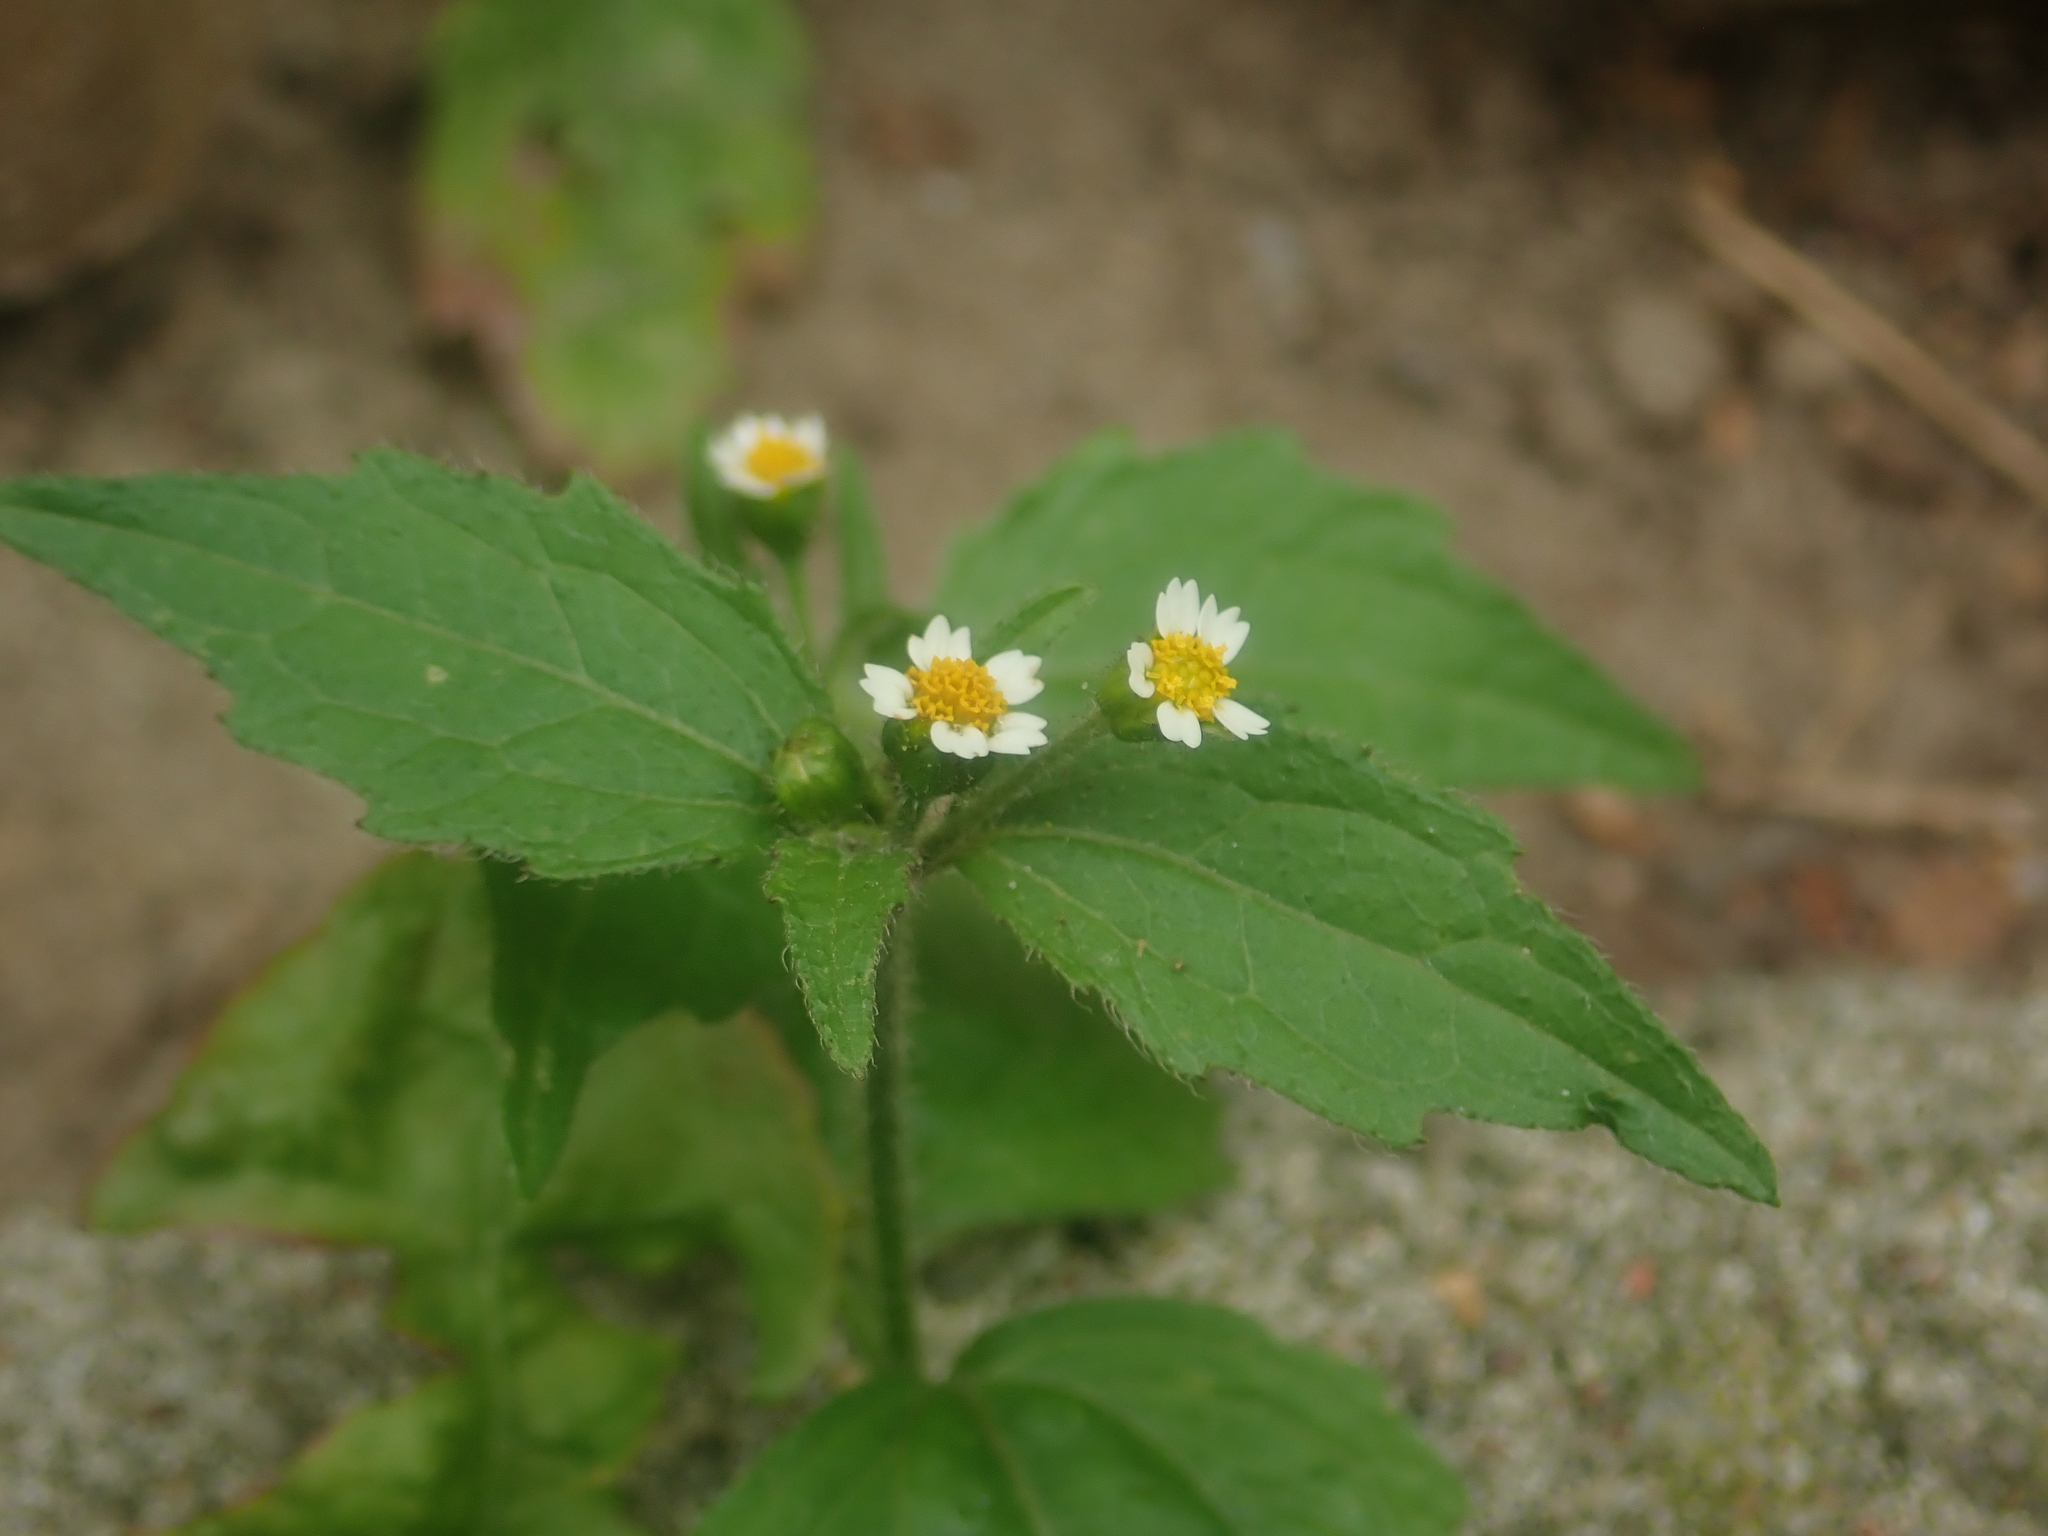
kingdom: Plantae
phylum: Tracheophyta
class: Magnoliopsida
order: Asterales
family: Asteraceae
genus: Galinsoga
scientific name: Galinsoga quadriradiata
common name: Shaggy soldier
